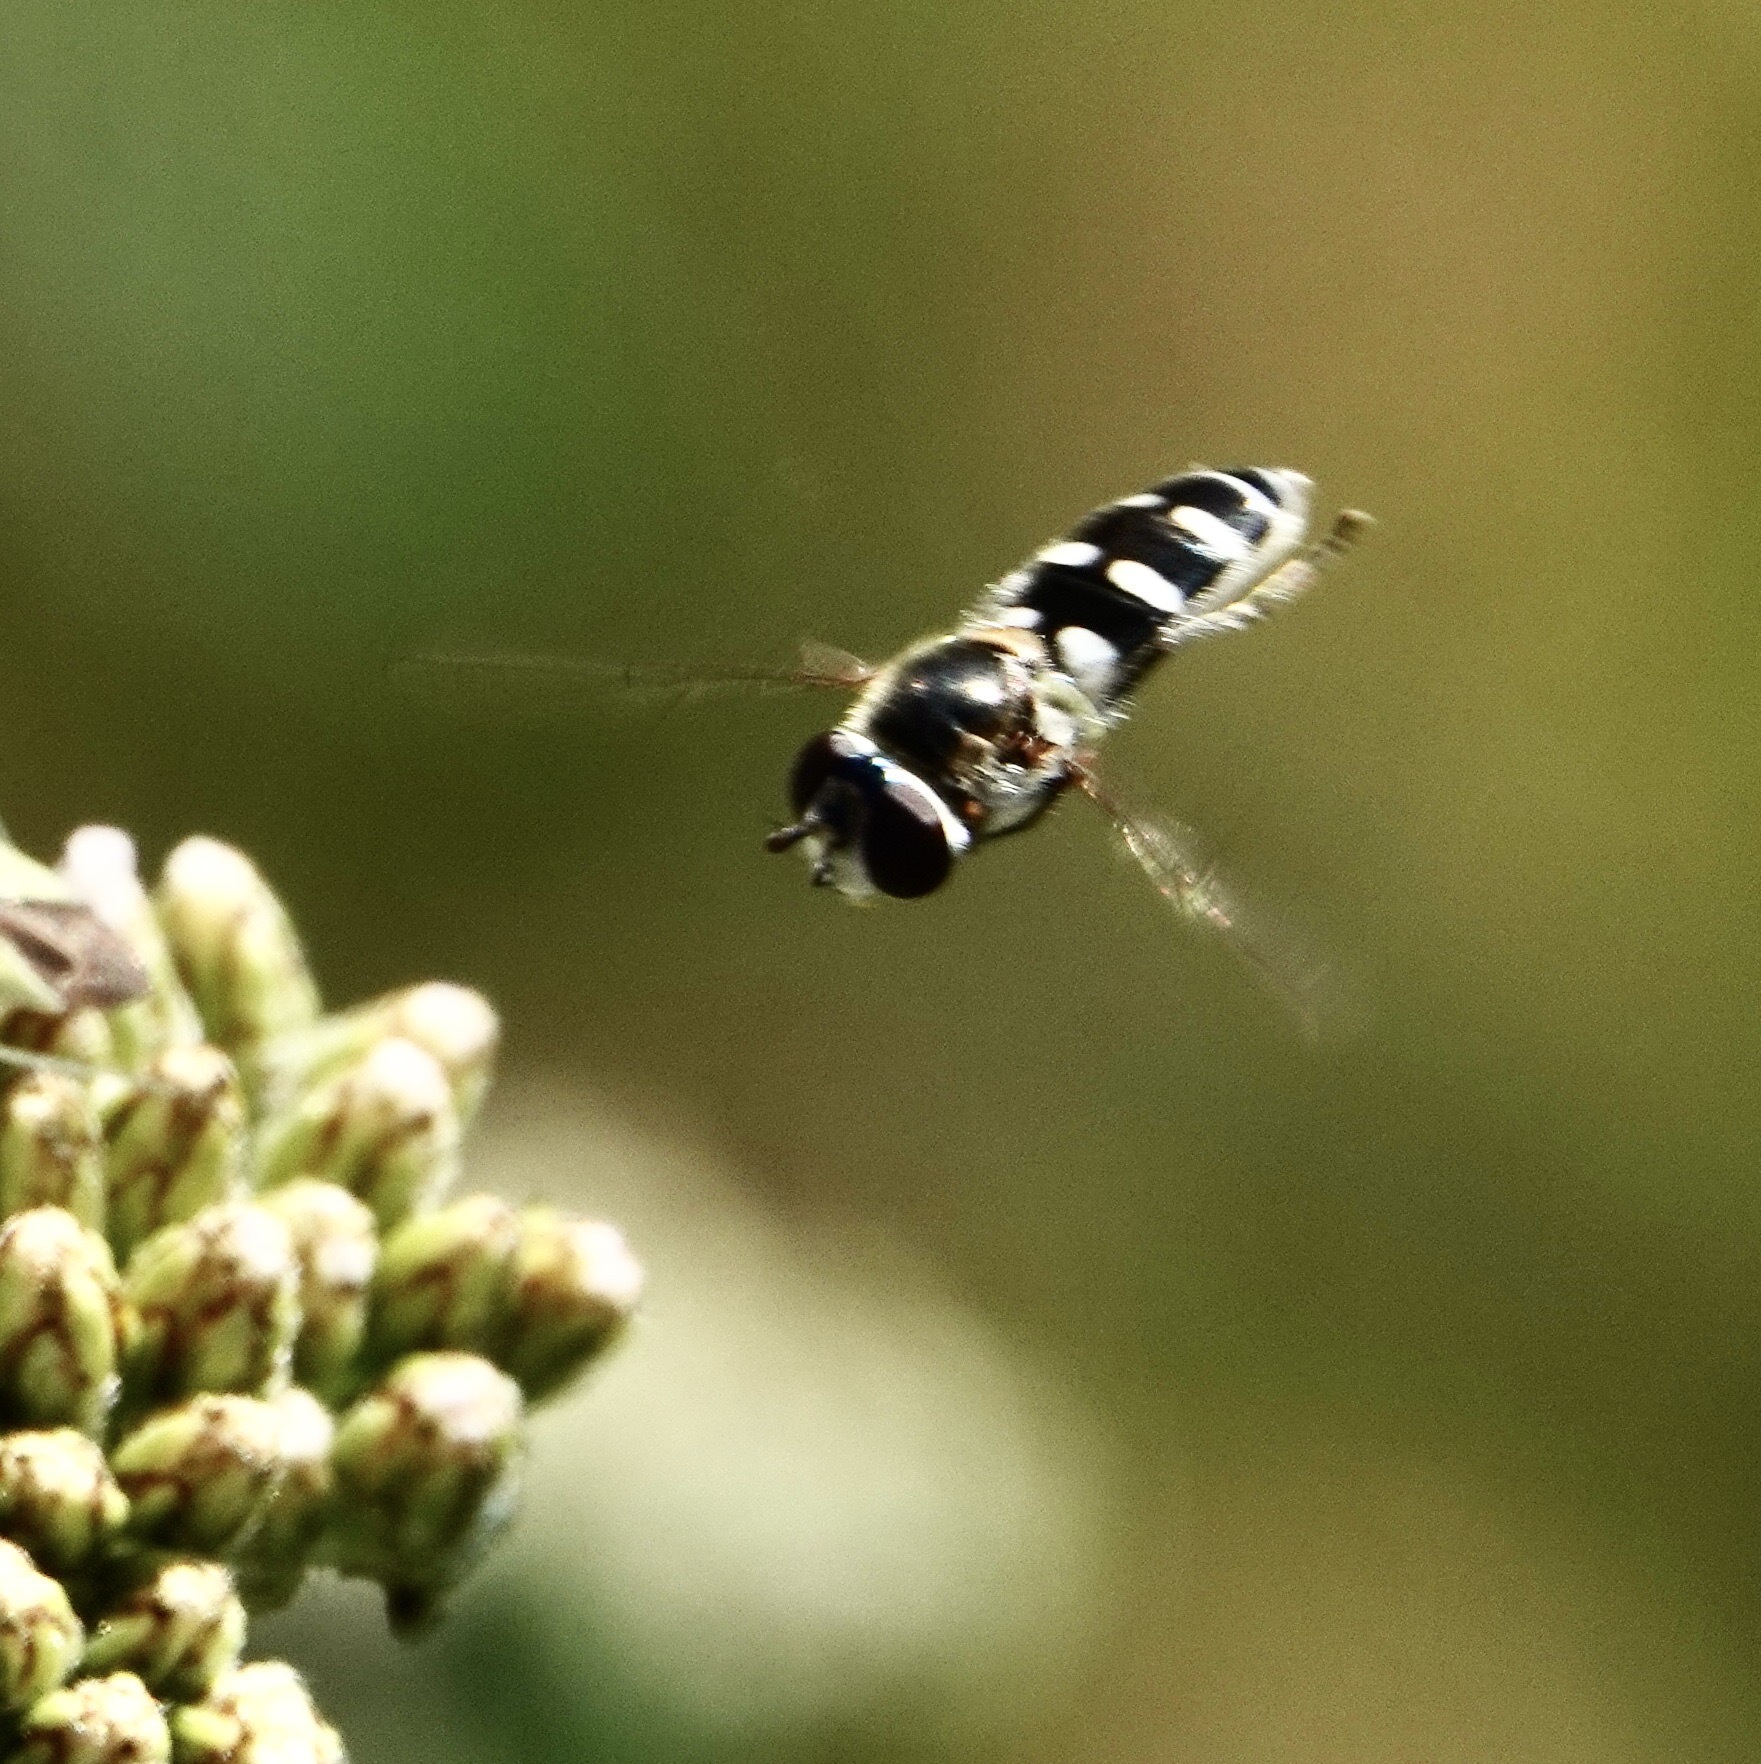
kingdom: Animalia
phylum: Arthropoda
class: Insecta
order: Diptera
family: Syrphidae
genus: Melangyna
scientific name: Melangyna
